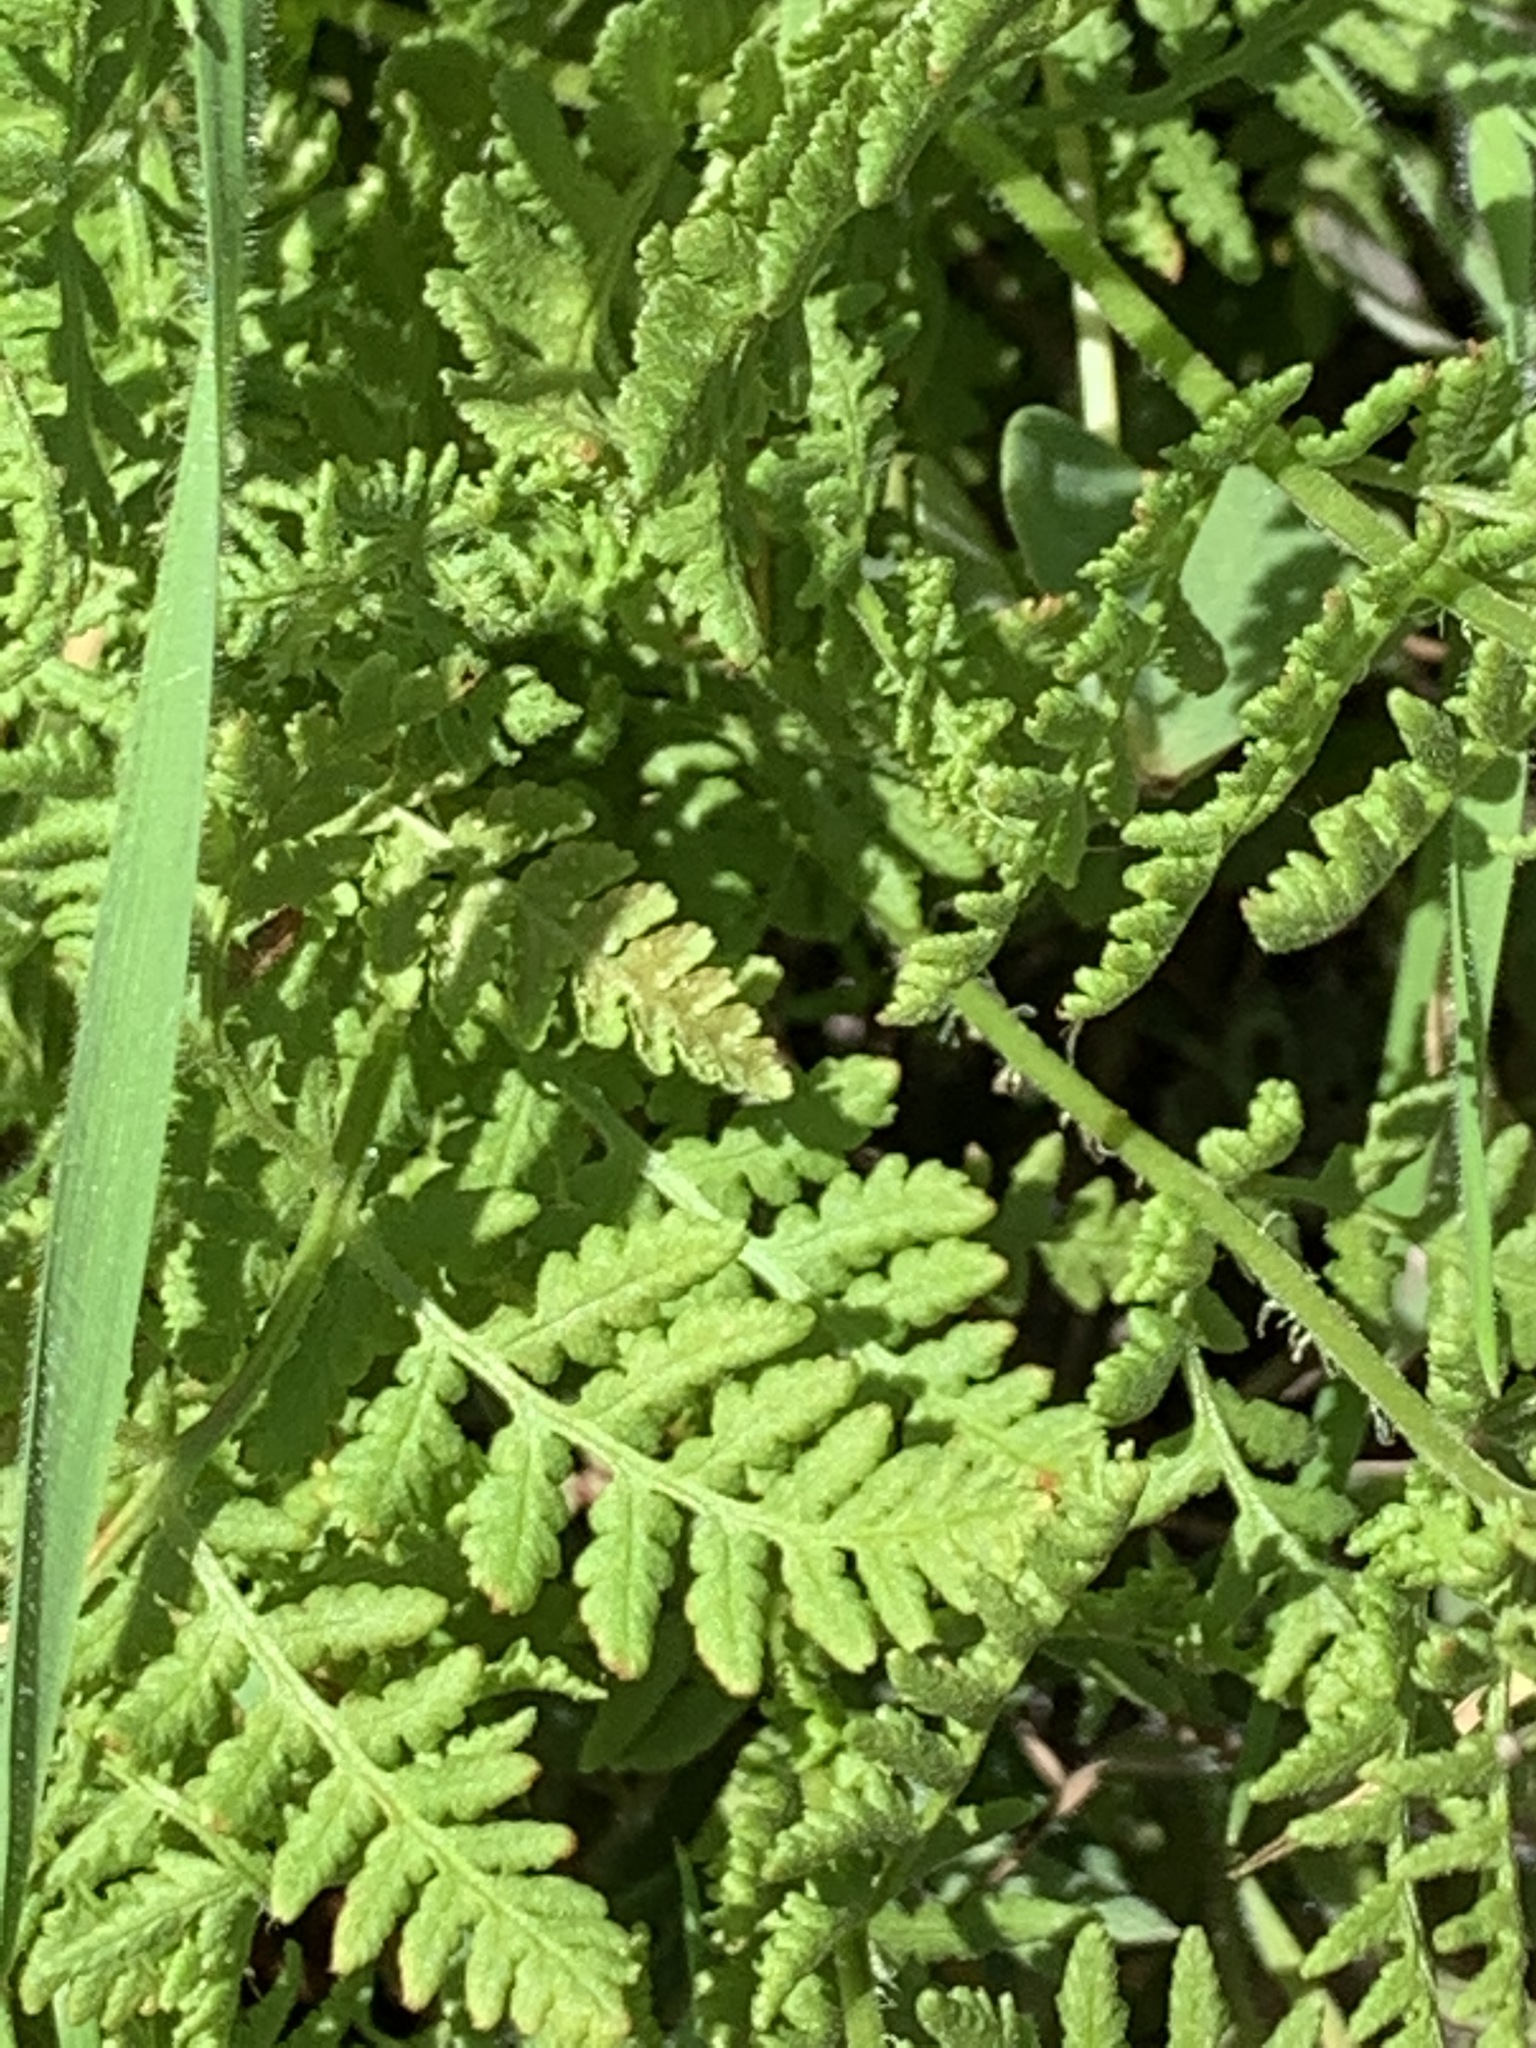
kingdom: Plantae
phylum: Tracheophyta
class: Polypodiopsida
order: Polypodiales
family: Woodsiaceae
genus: Physematium
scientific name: Physematium obtusum
